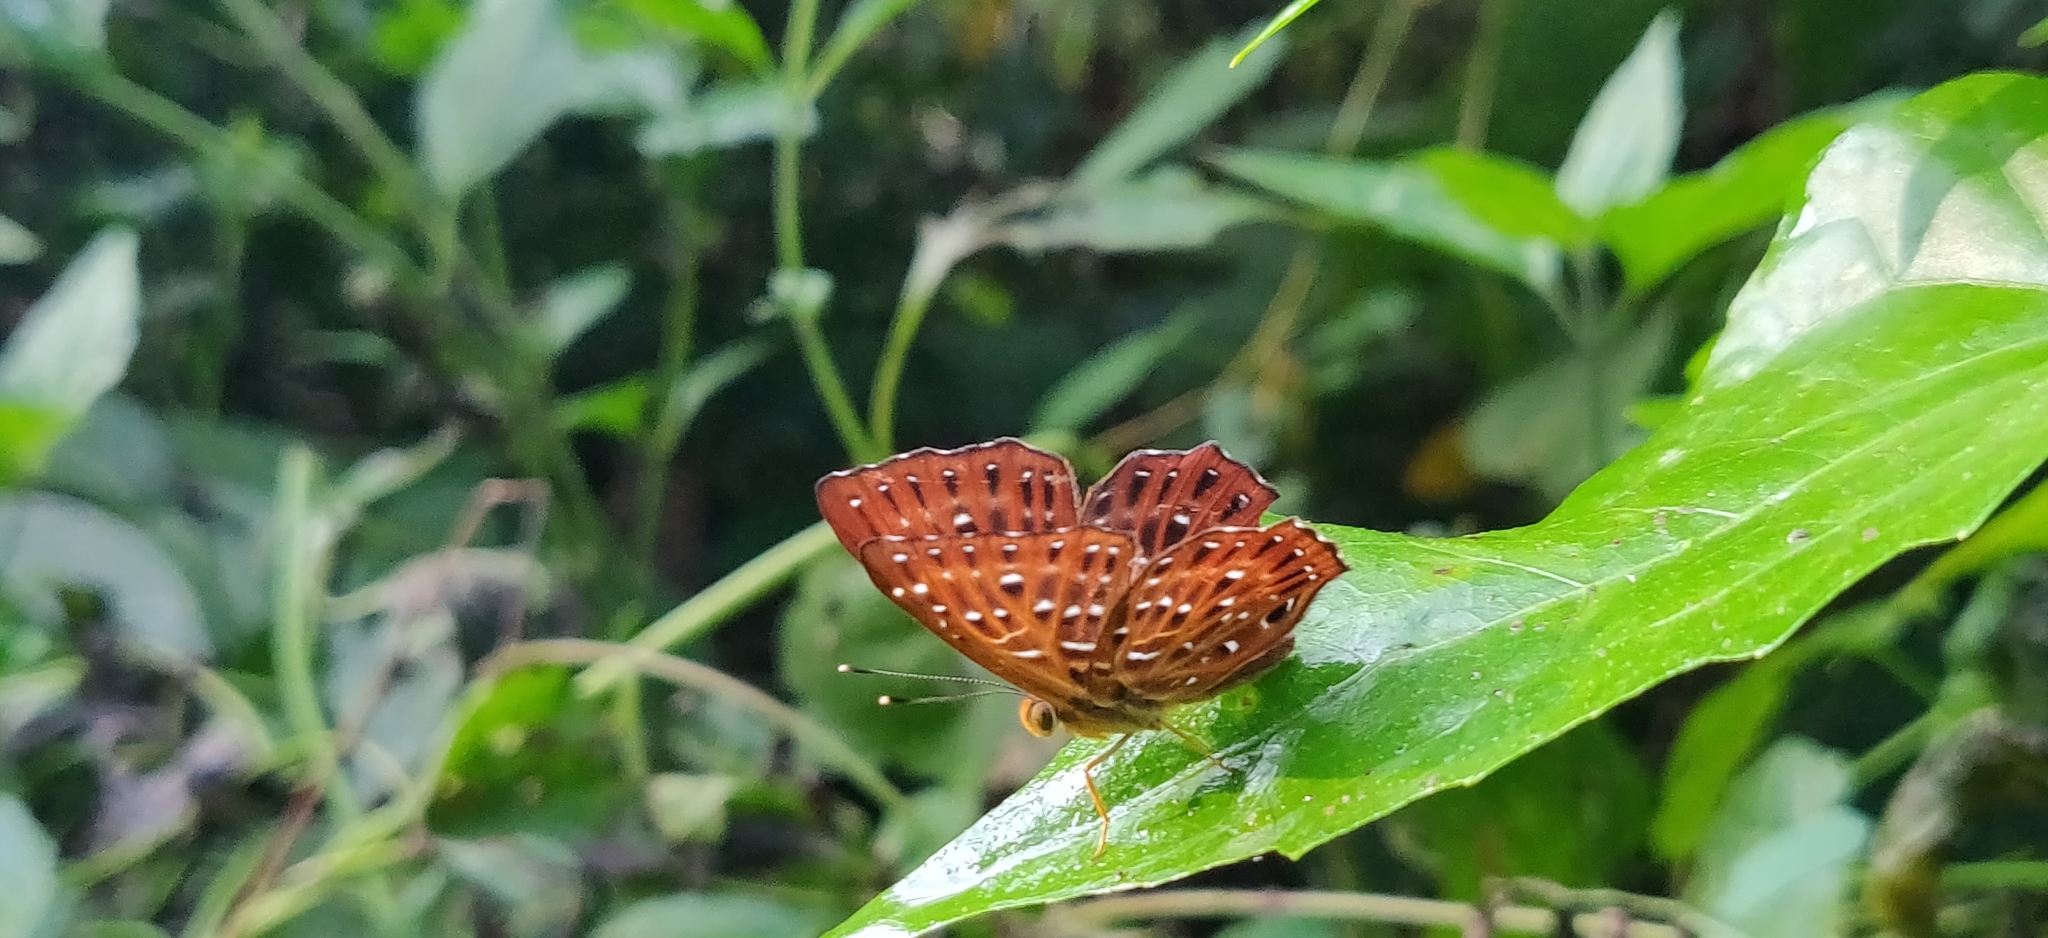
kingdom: Animalia
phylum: Arthropoda
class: Insecta
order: Lepidoptera
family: Riodinidae
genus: Zemeros
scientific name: Zemeros flegyas
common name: Punchinello
